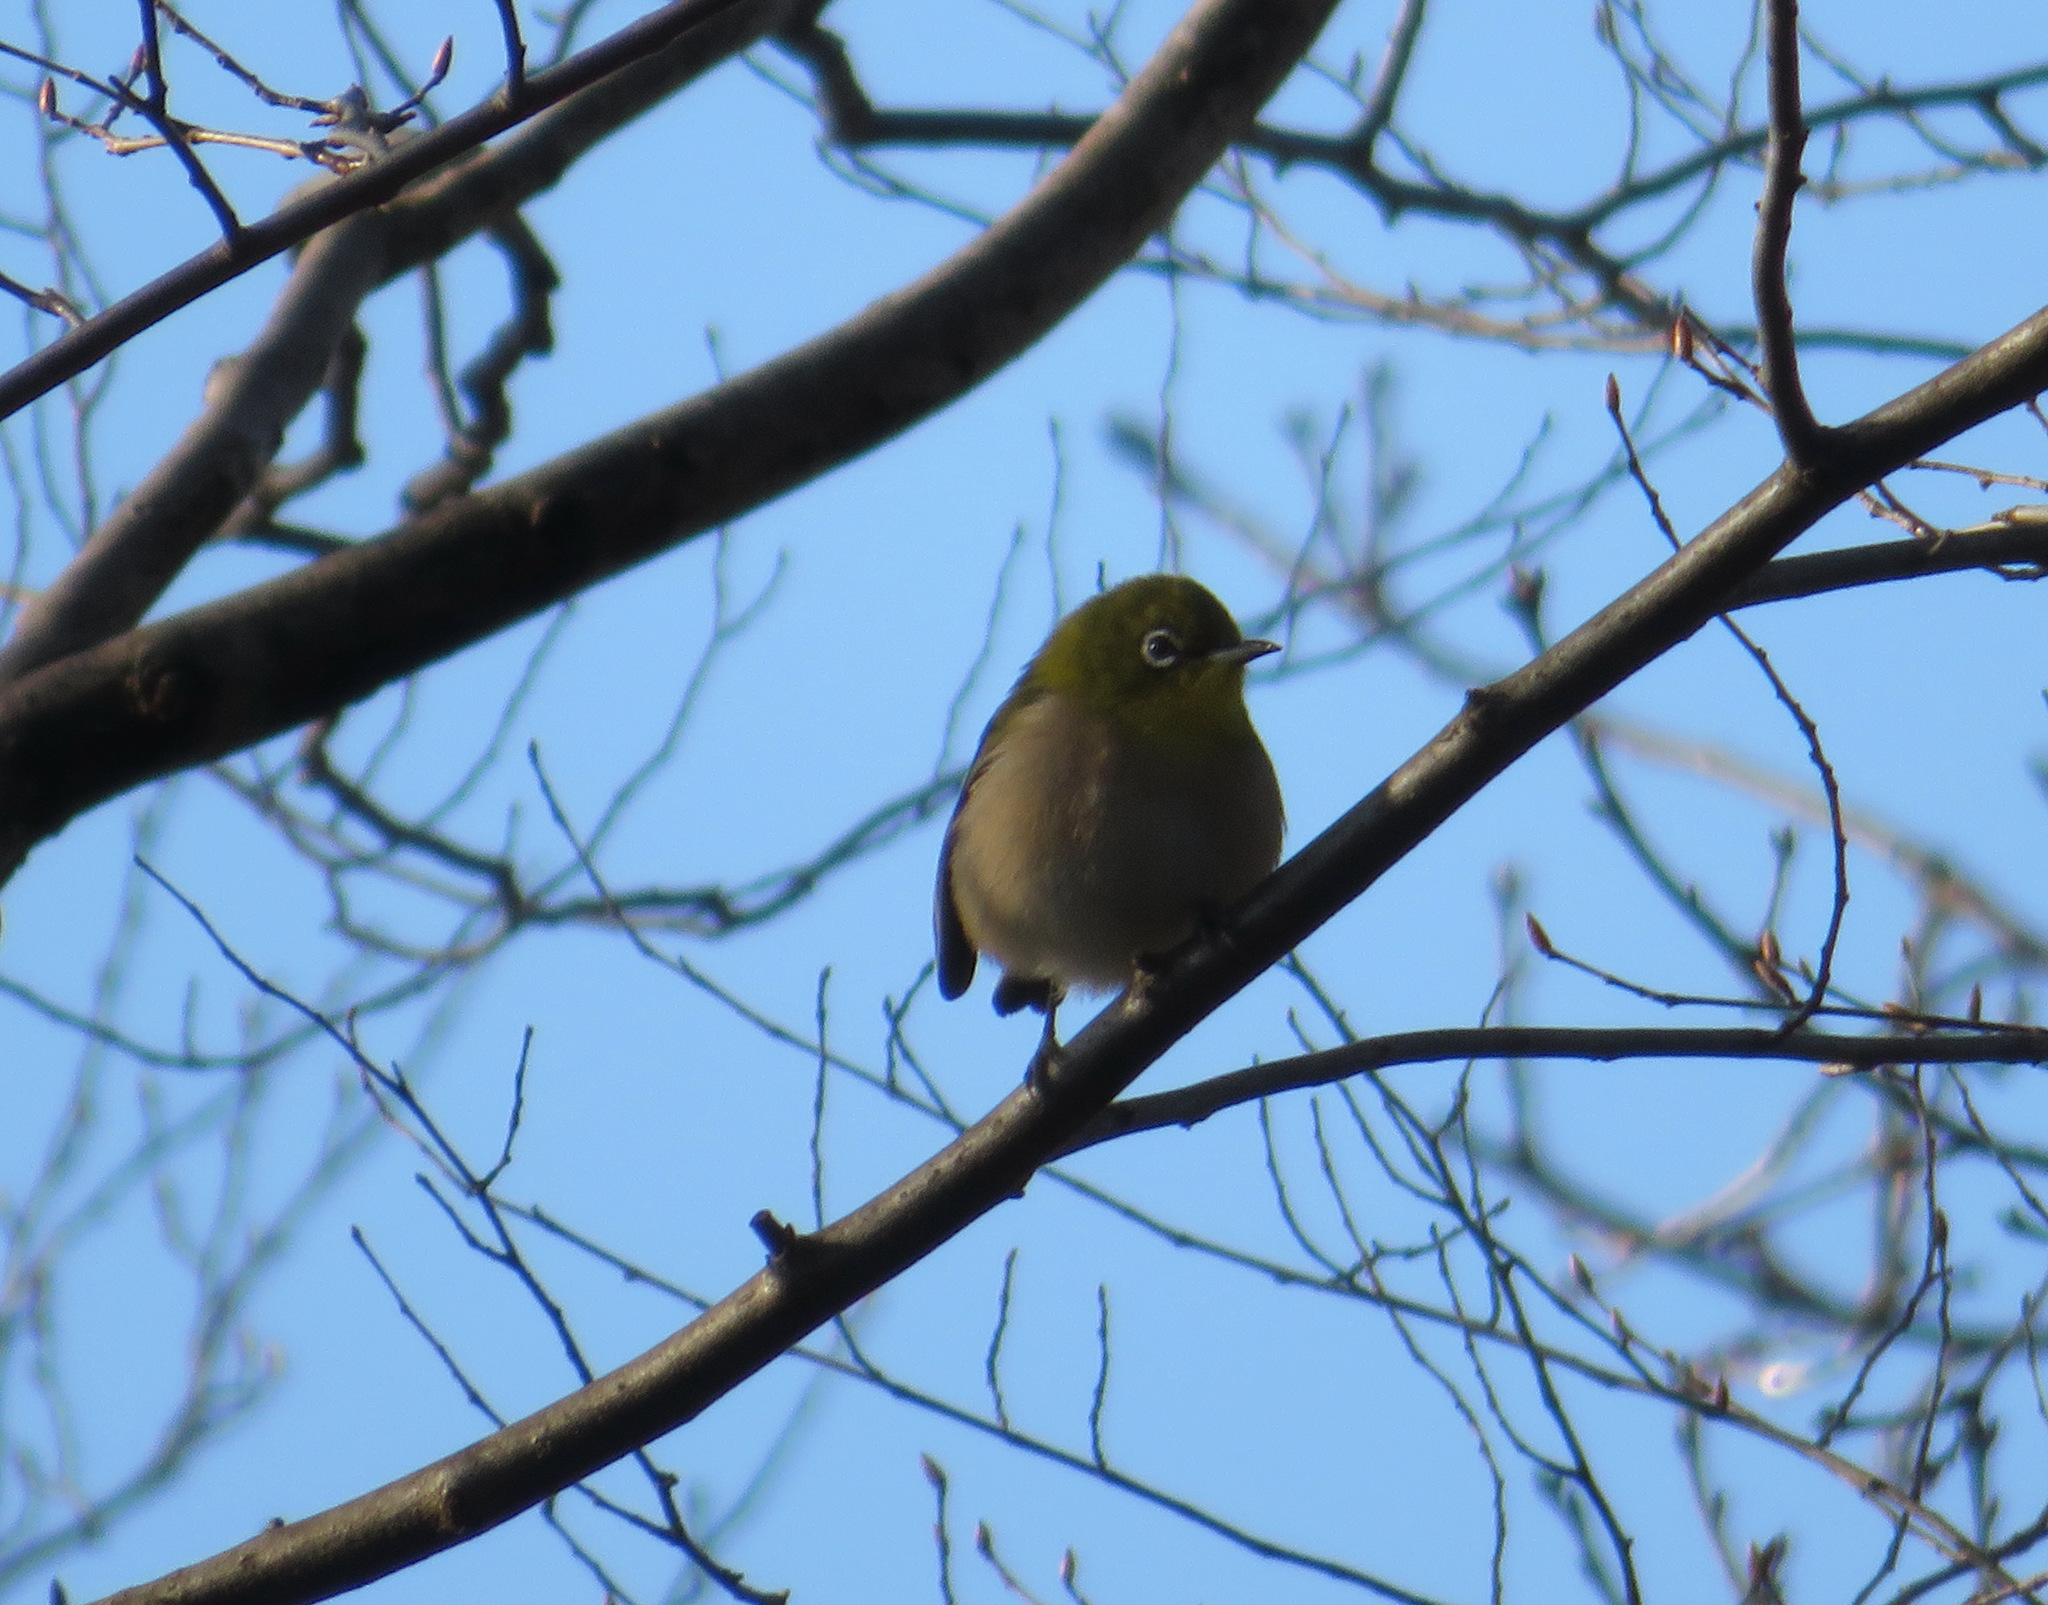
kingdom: Animalia
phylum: Chordata
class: Aves
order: Passeriformes
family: Zosteropidae
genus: Zosterops
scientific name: Zosterops japonicus
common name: Japanese white-eye
